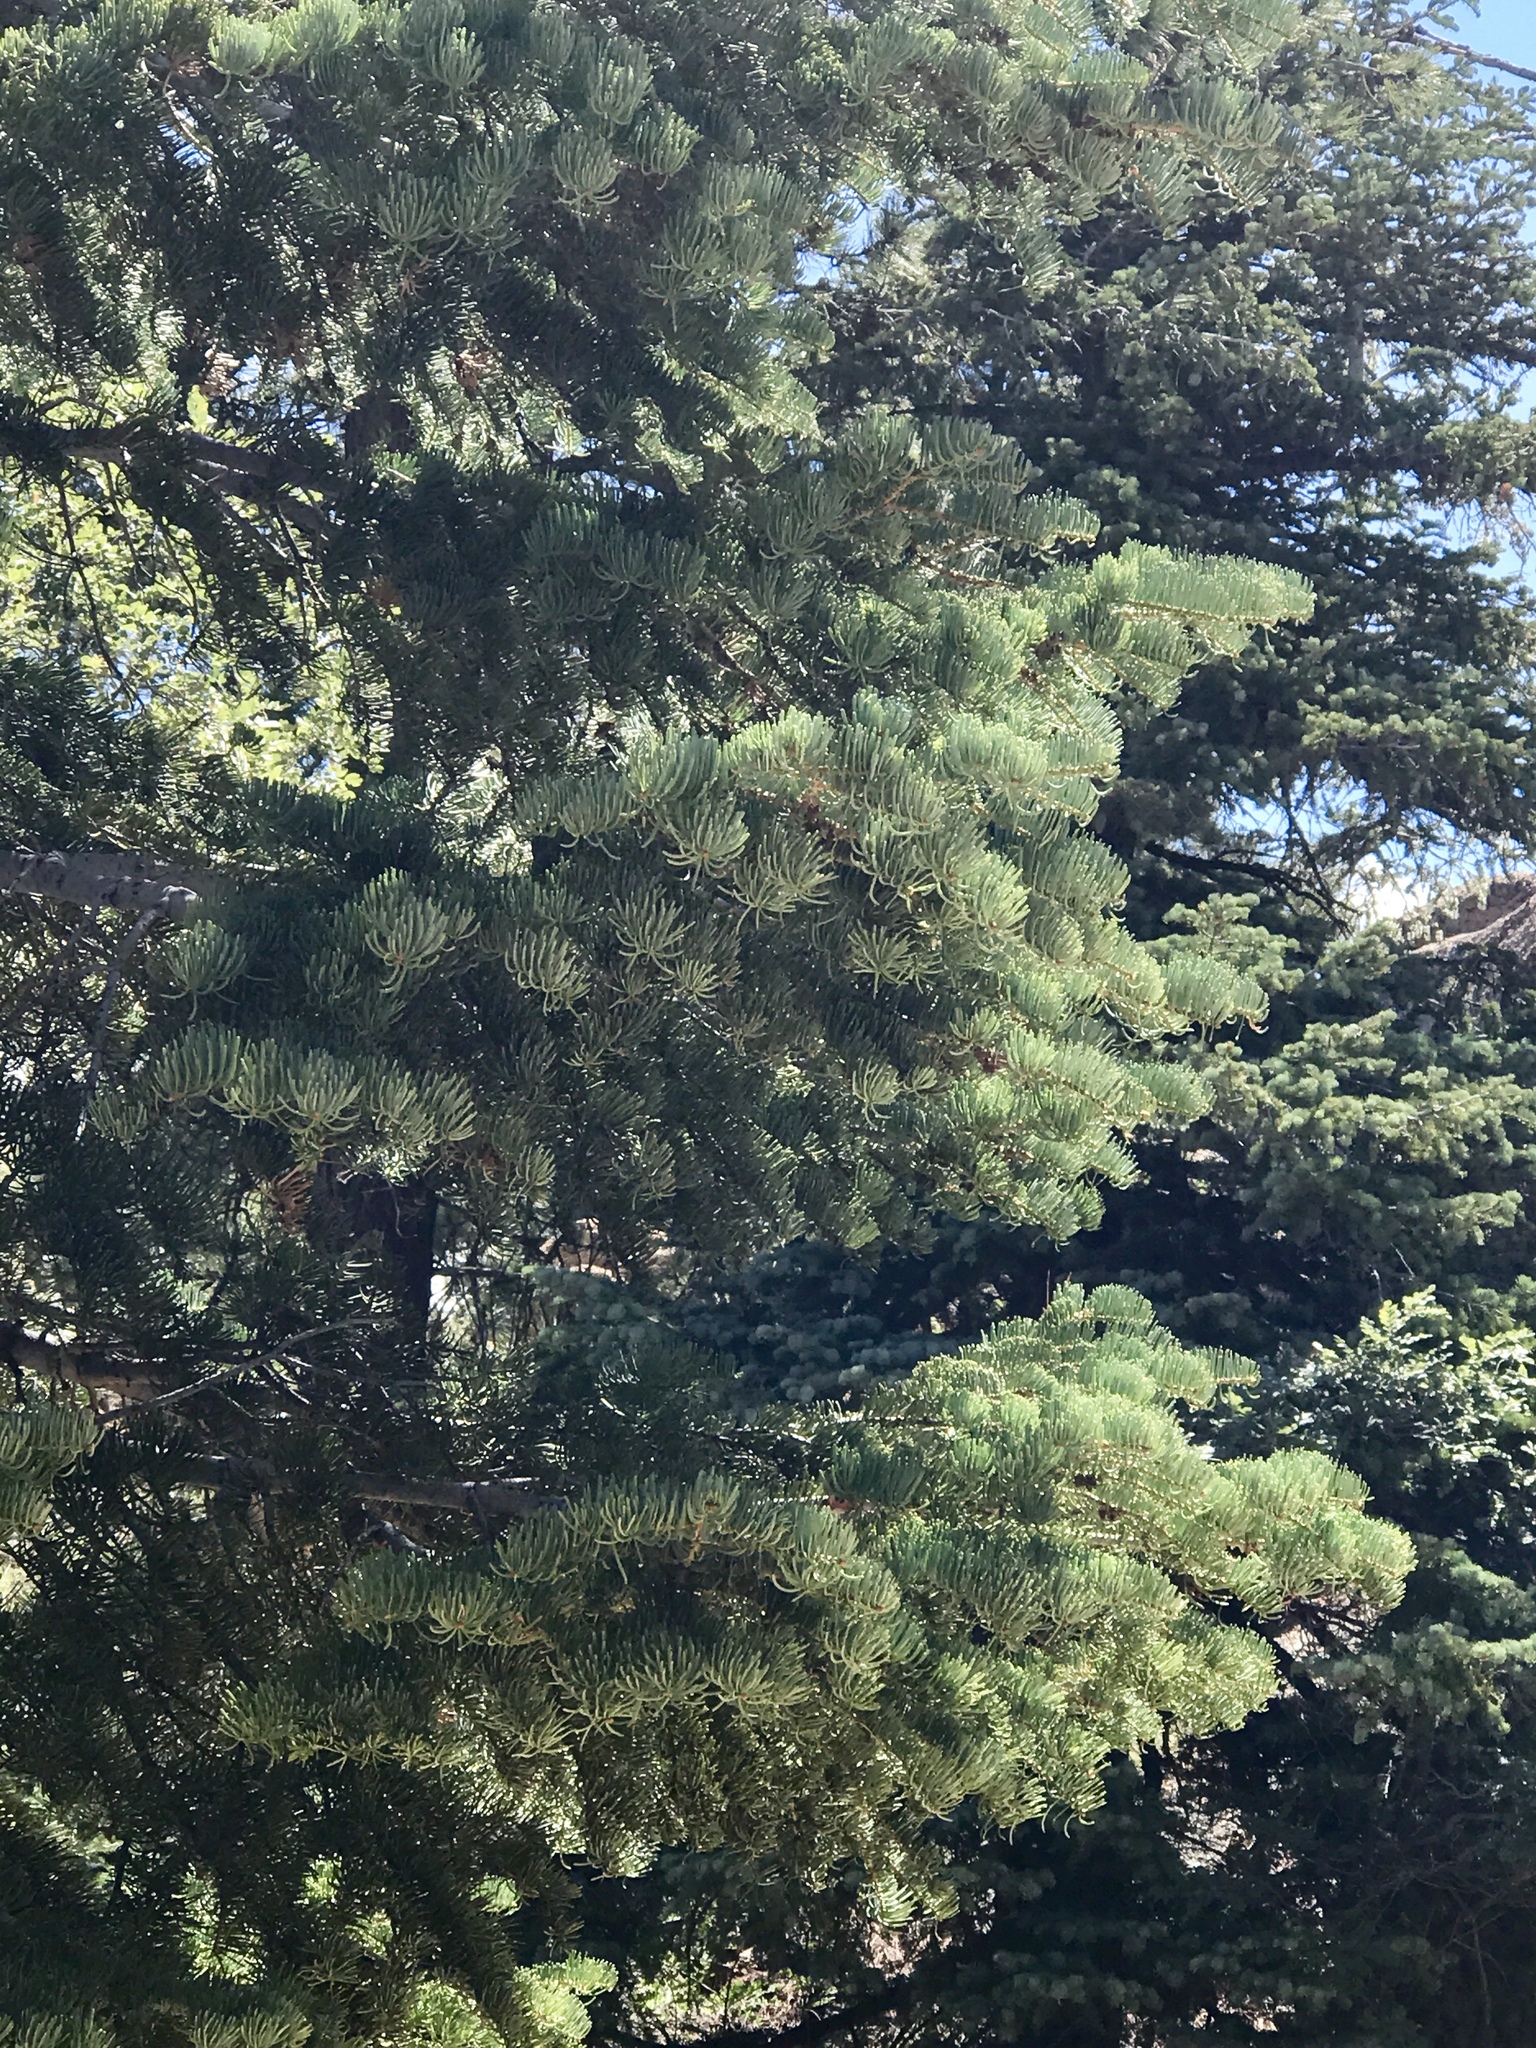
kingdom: Plantae
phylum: Tracheophyta
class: Pinopsida
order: Pinales
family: Pinaceae
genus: Abies
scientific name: Abies concolor
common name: Colorado fir
